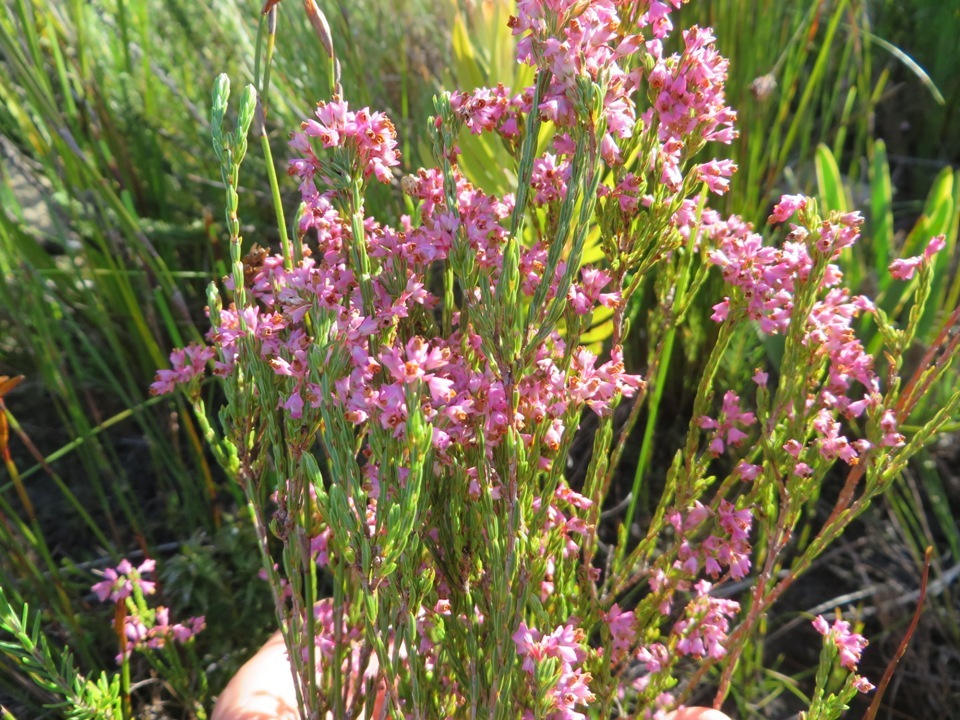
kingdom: Plantae
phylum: Tracheophyta
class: Magnoliopsida
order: Ericales
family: Ericaceae
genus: Erica
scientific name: Erica articularis
